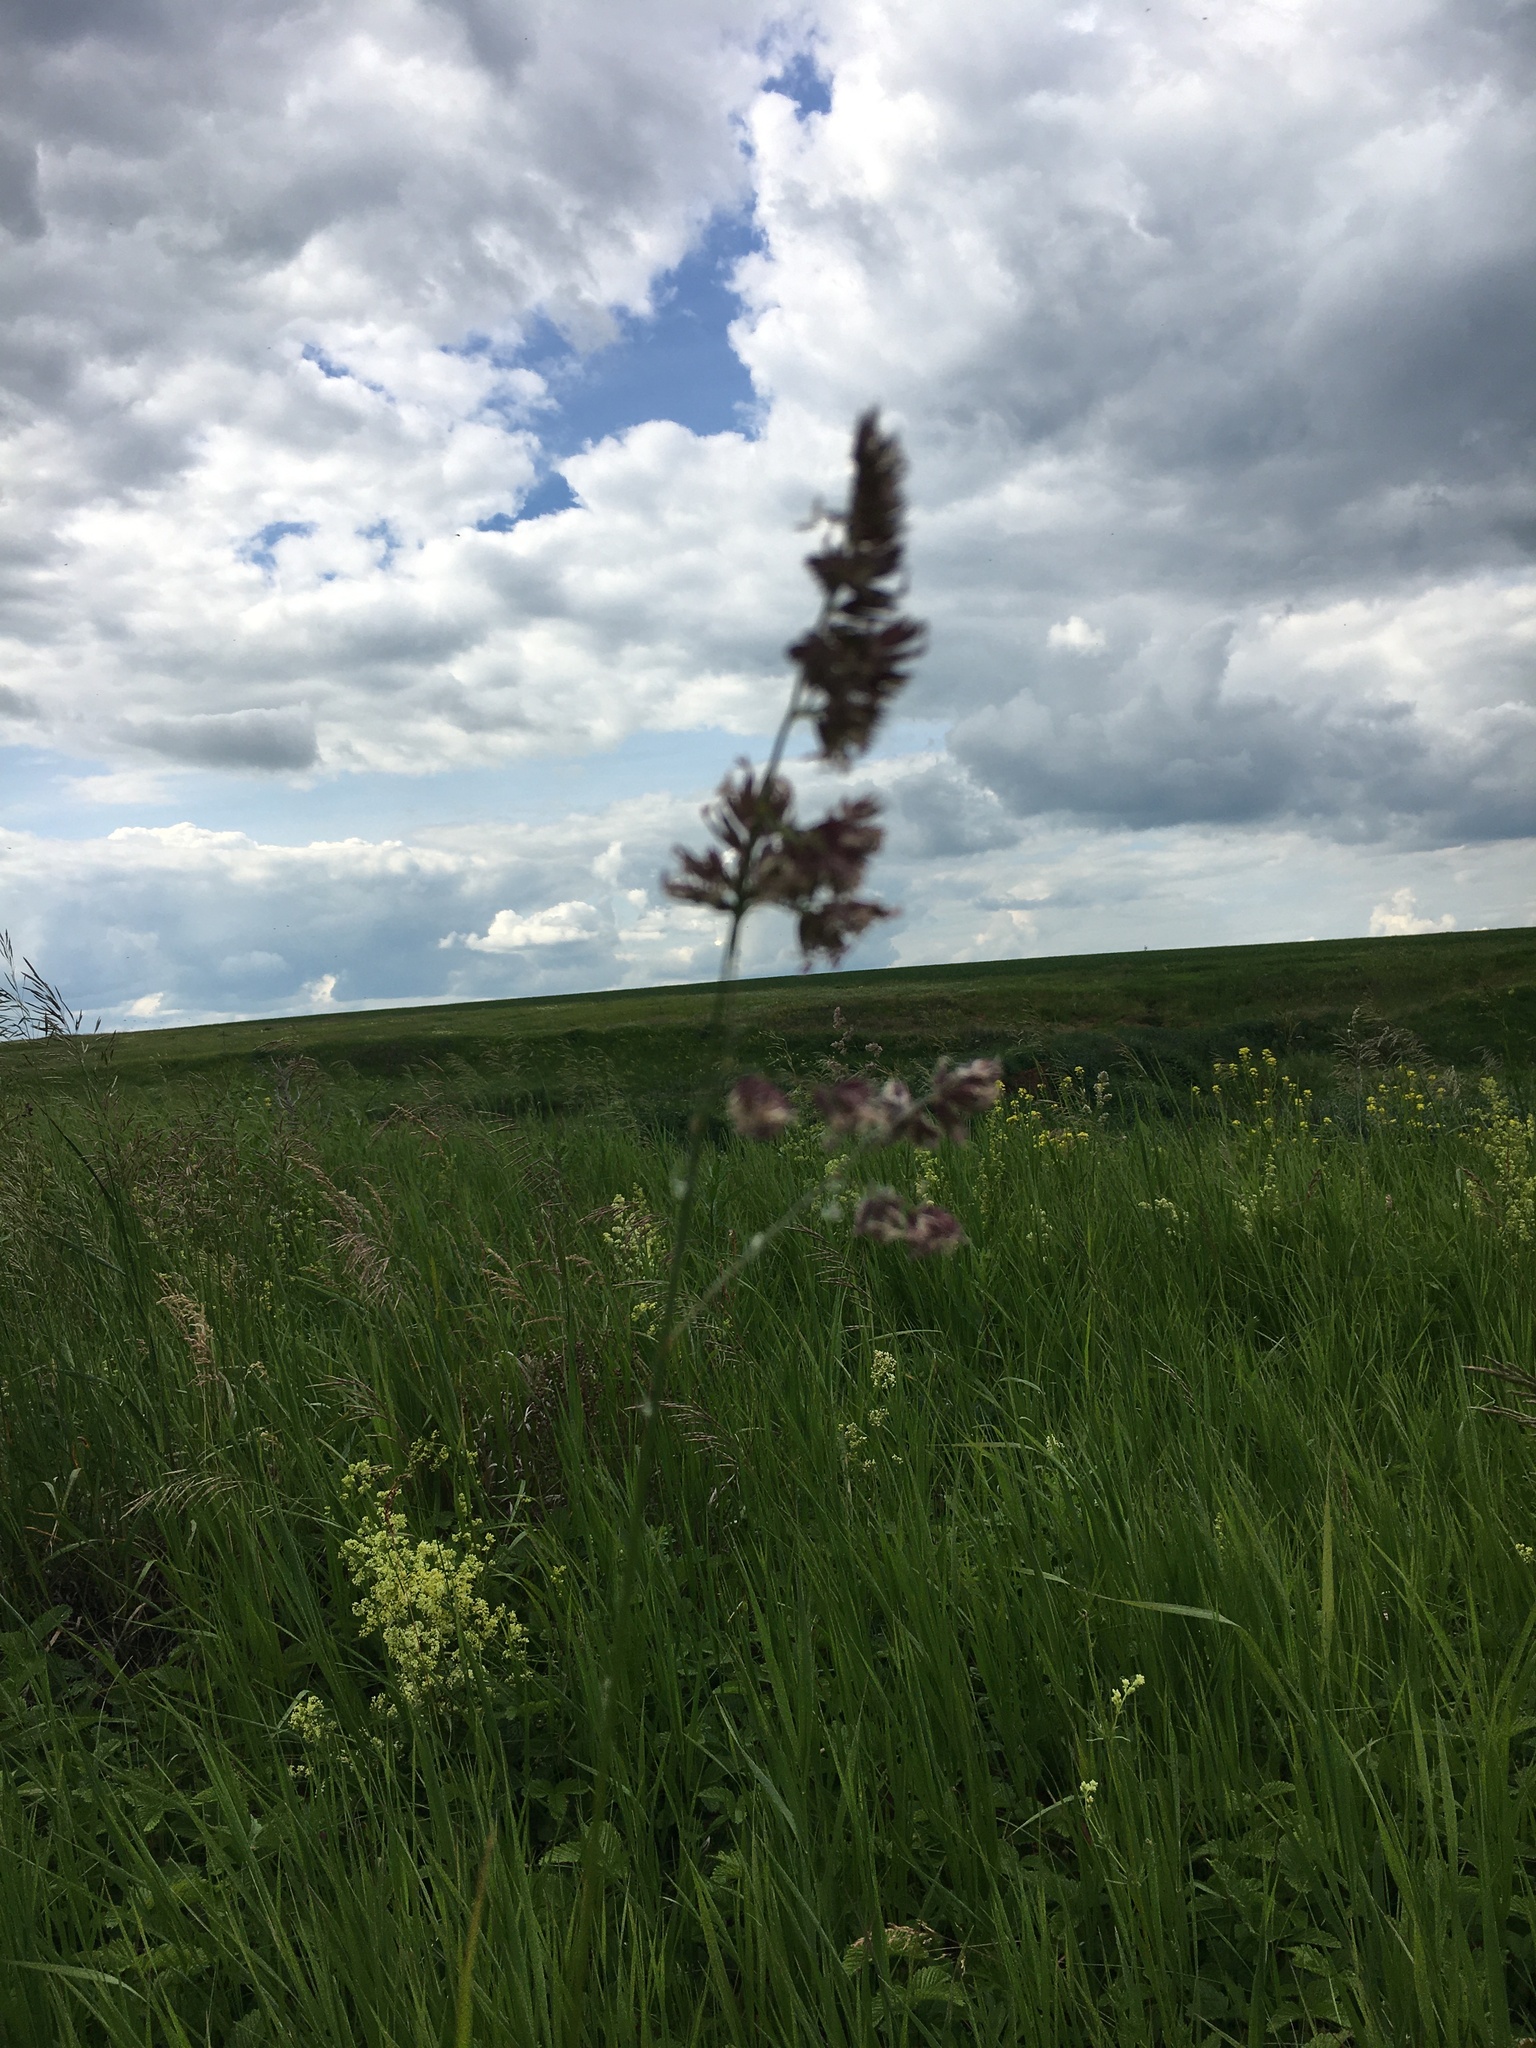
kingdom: Plantae
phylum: Tracheophyta
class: Liliopsida
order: Poales
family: Poaceae
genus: Dactylis
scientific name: Dactylis glomerata
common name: Orchardgrass
